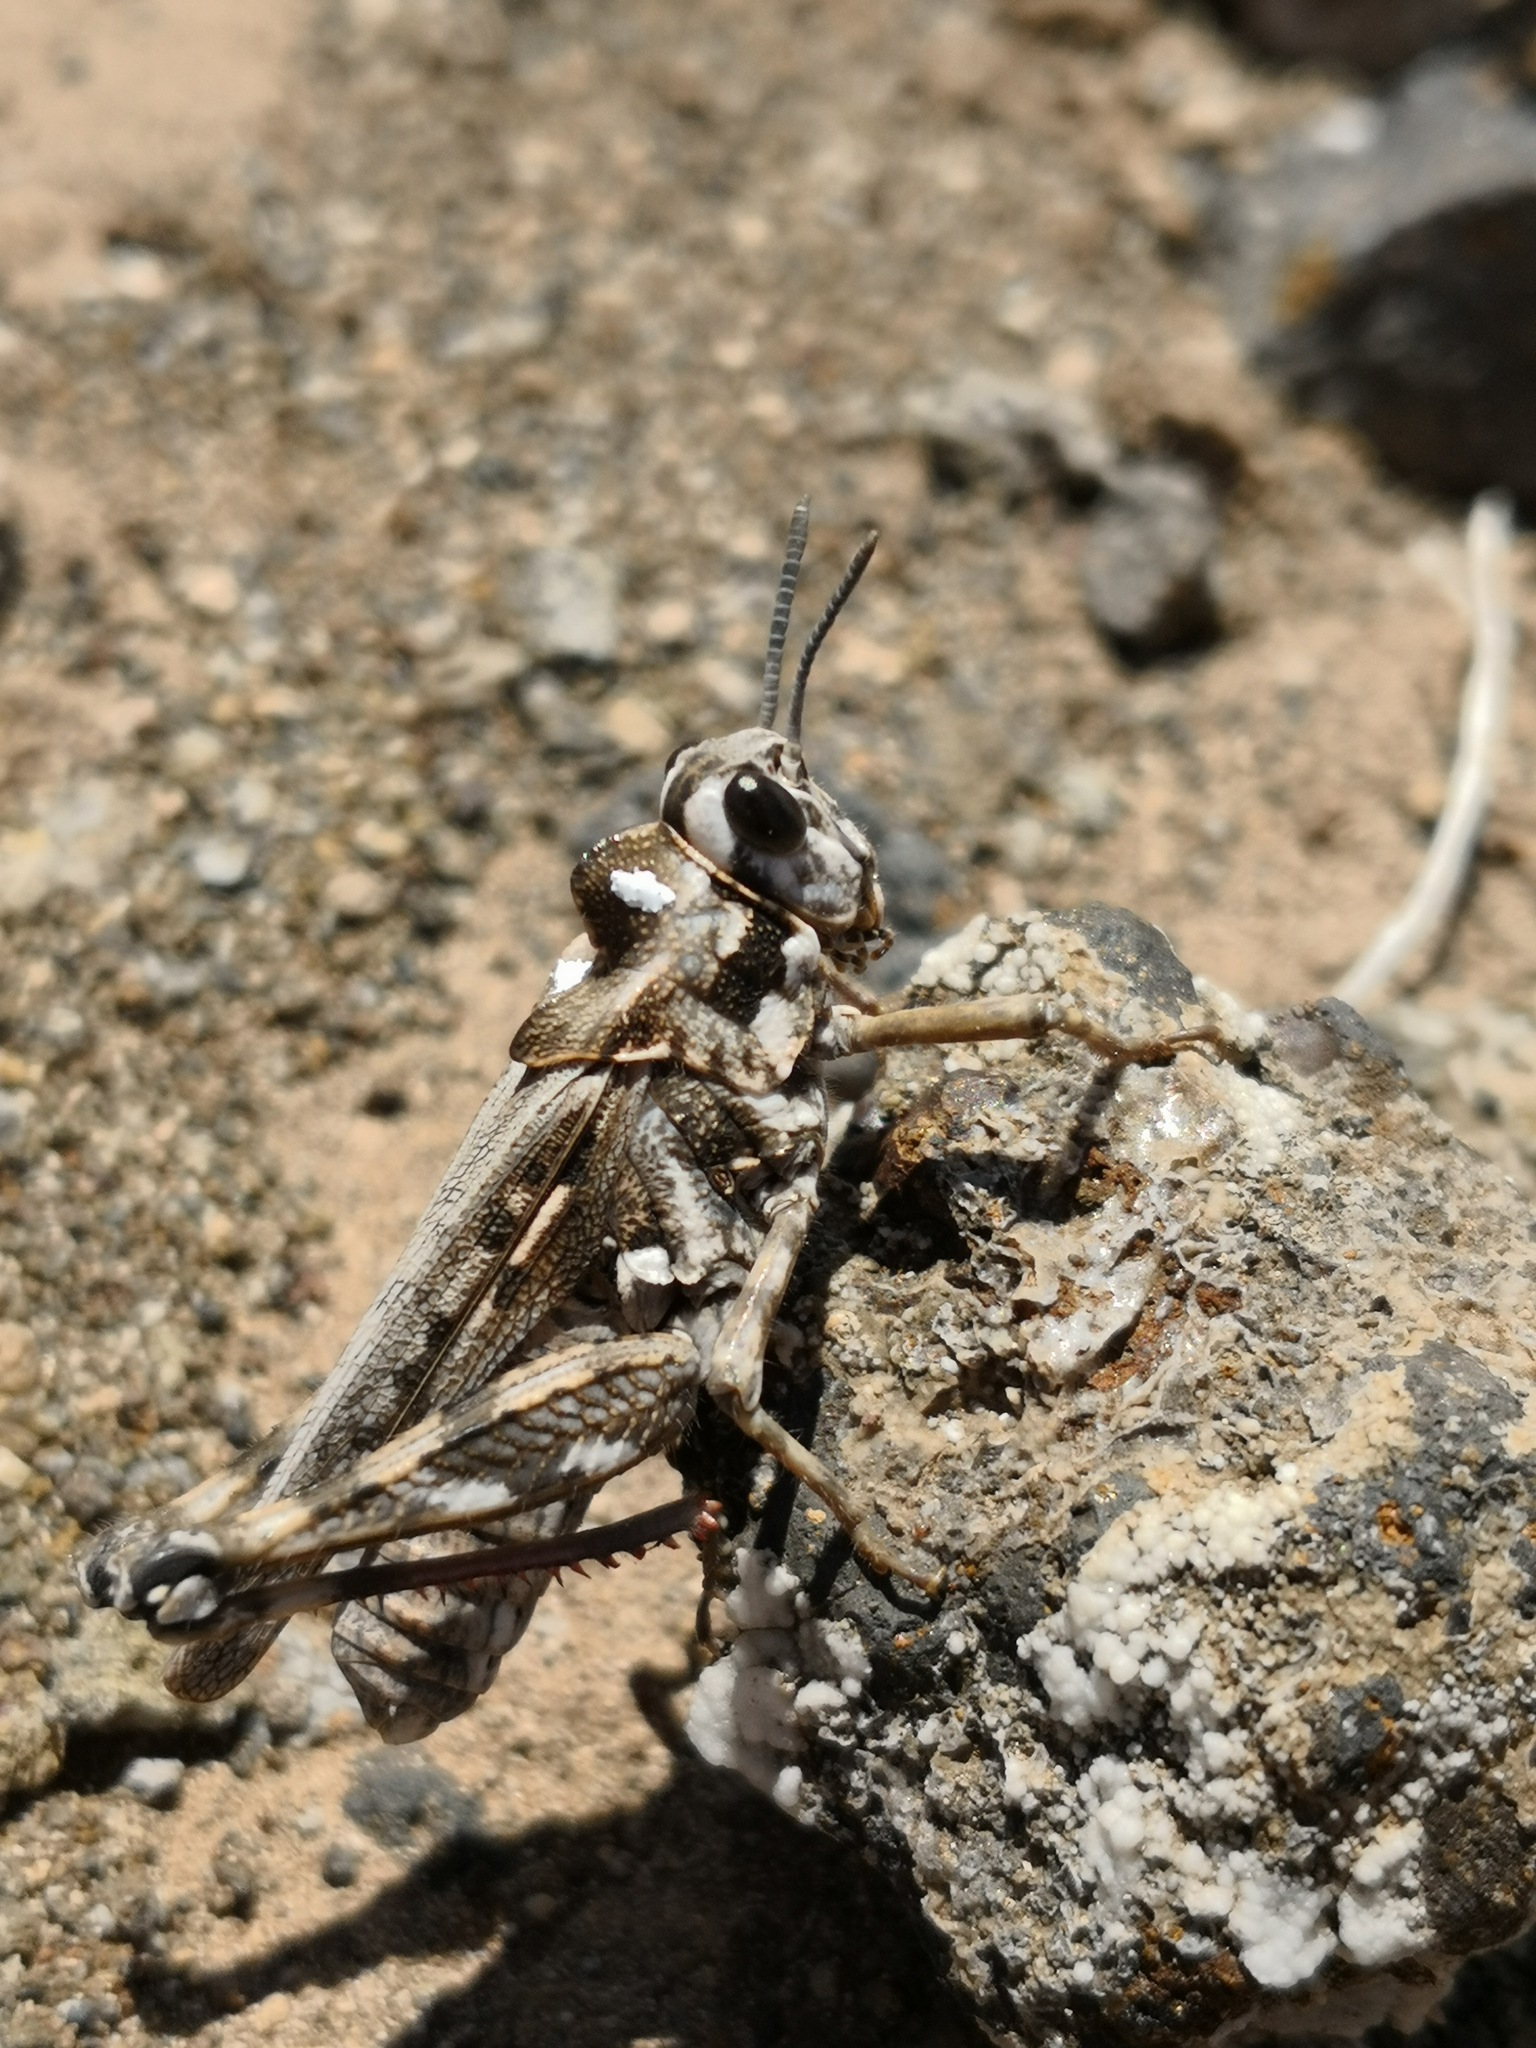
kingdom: Animalia
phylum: Arthropoda
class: Insecta
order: Orthoptera
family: Dericorythidae
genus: Dericorys
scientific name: Dericorys minutus
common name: Gran canaria crested grasshopper
